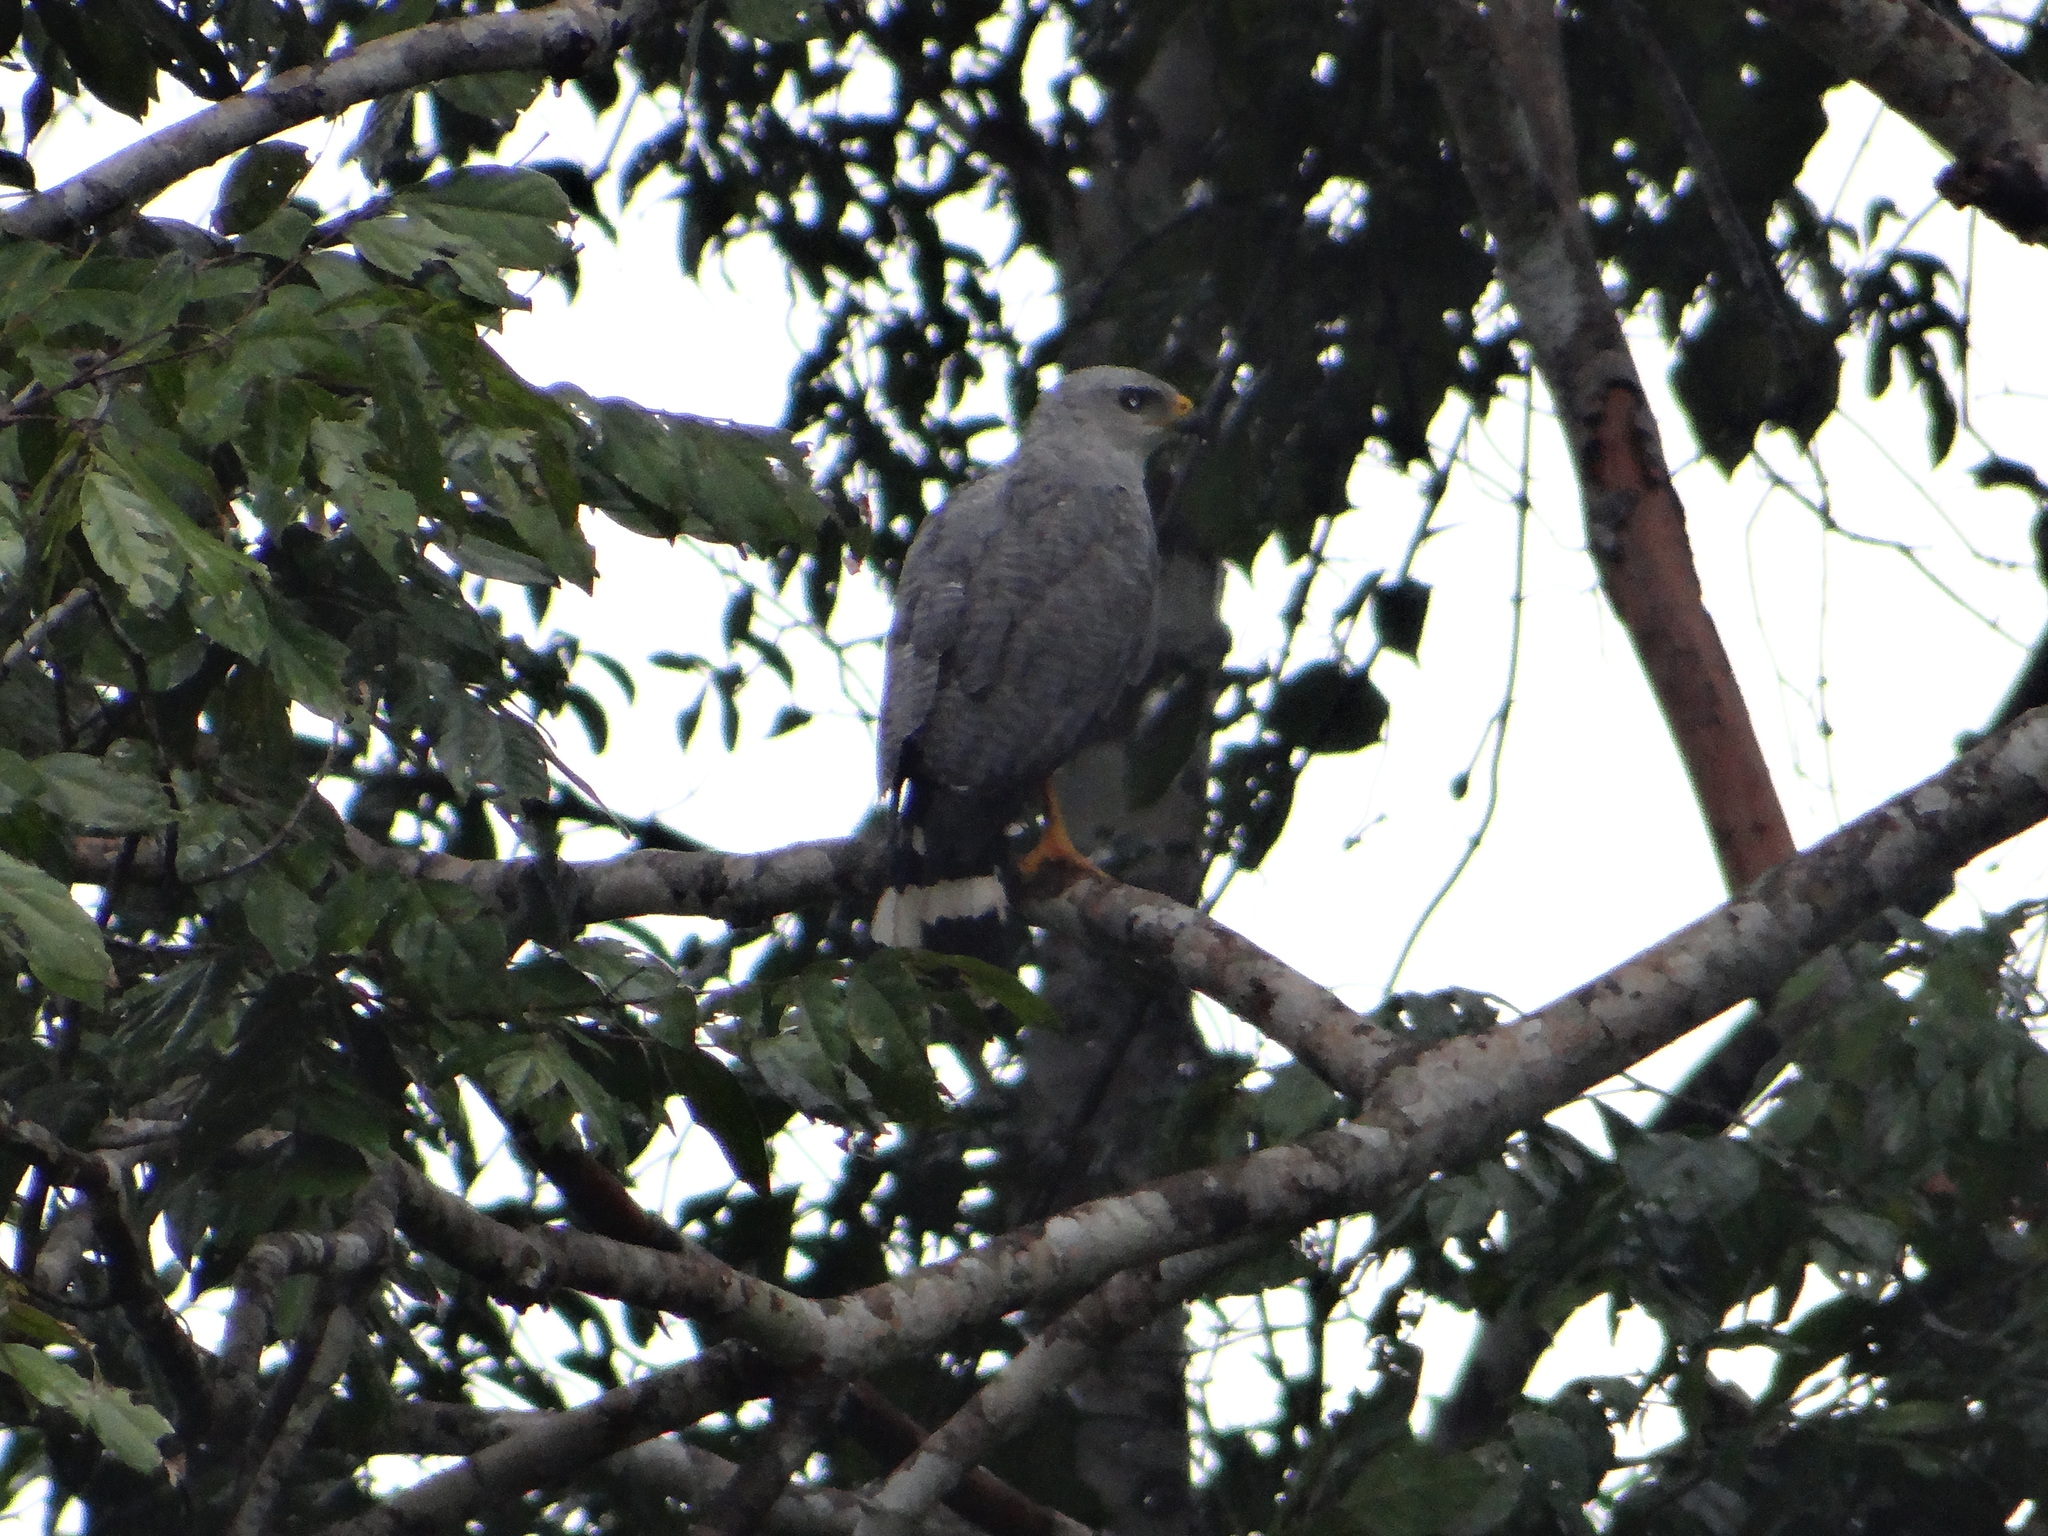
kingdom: Animalia
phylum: Chordata
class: Aves
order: Accipitriformes
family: Accipitridae
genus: Buteo
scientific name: Buteo nitidus
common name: Grey-lined hawk
